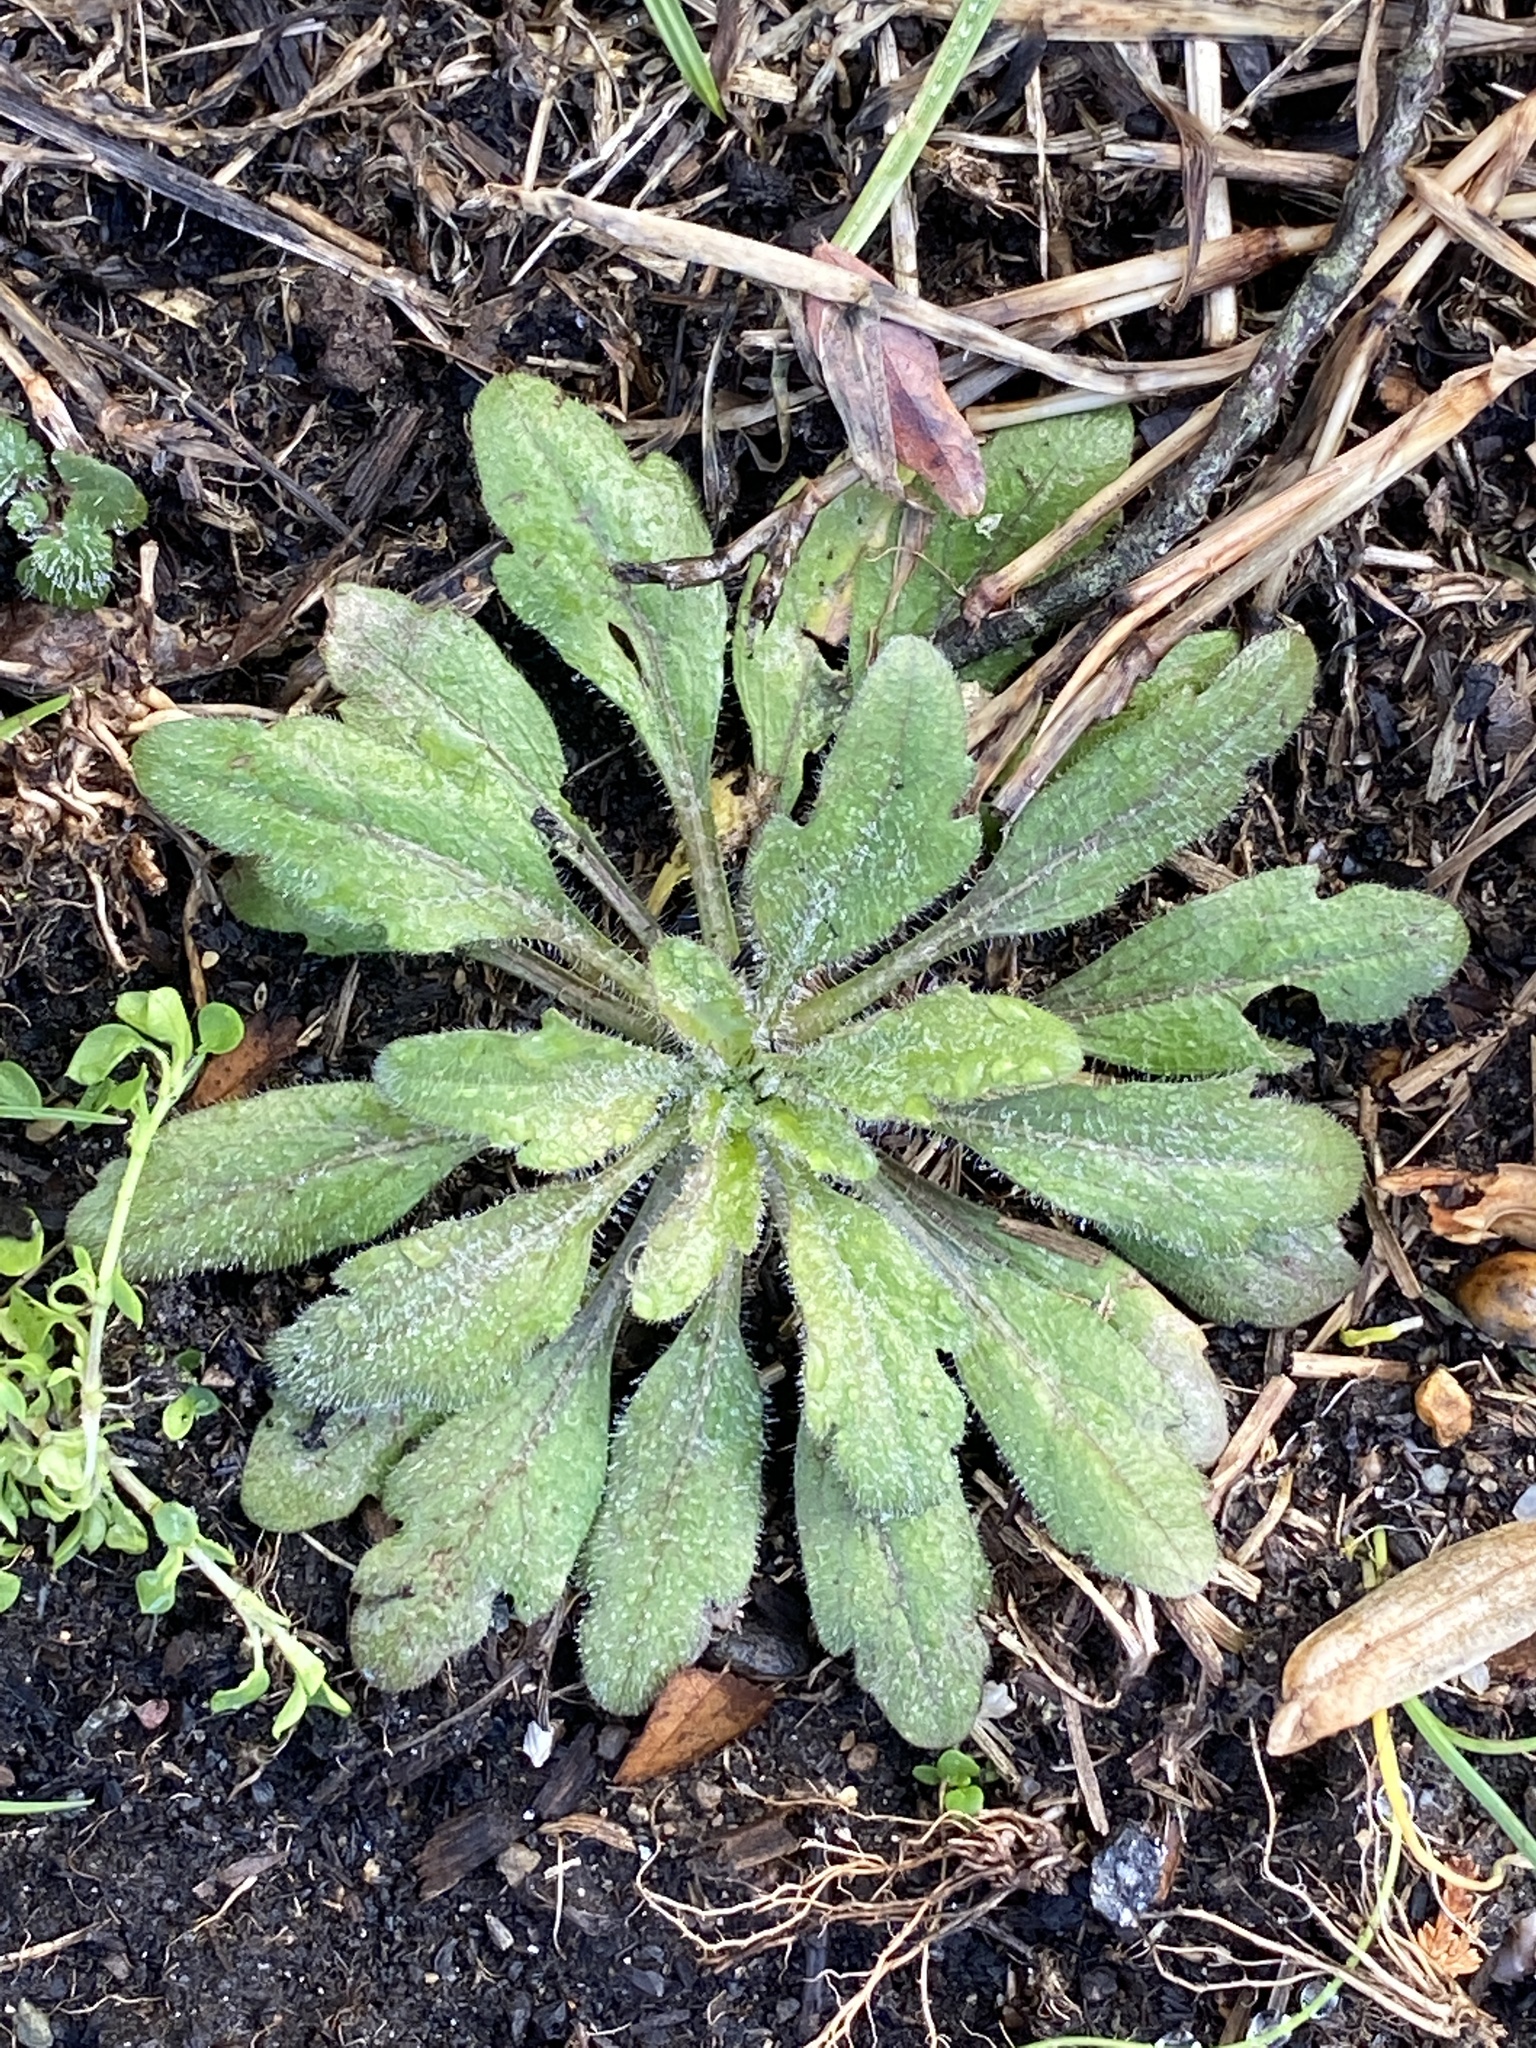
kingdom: Plantae
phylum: Tracheophyta
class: Magnoliopsida
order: Asterales
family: Asteraceae
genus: Erigeron
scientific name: Erigeron canadensis
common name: Canadian fleabane
